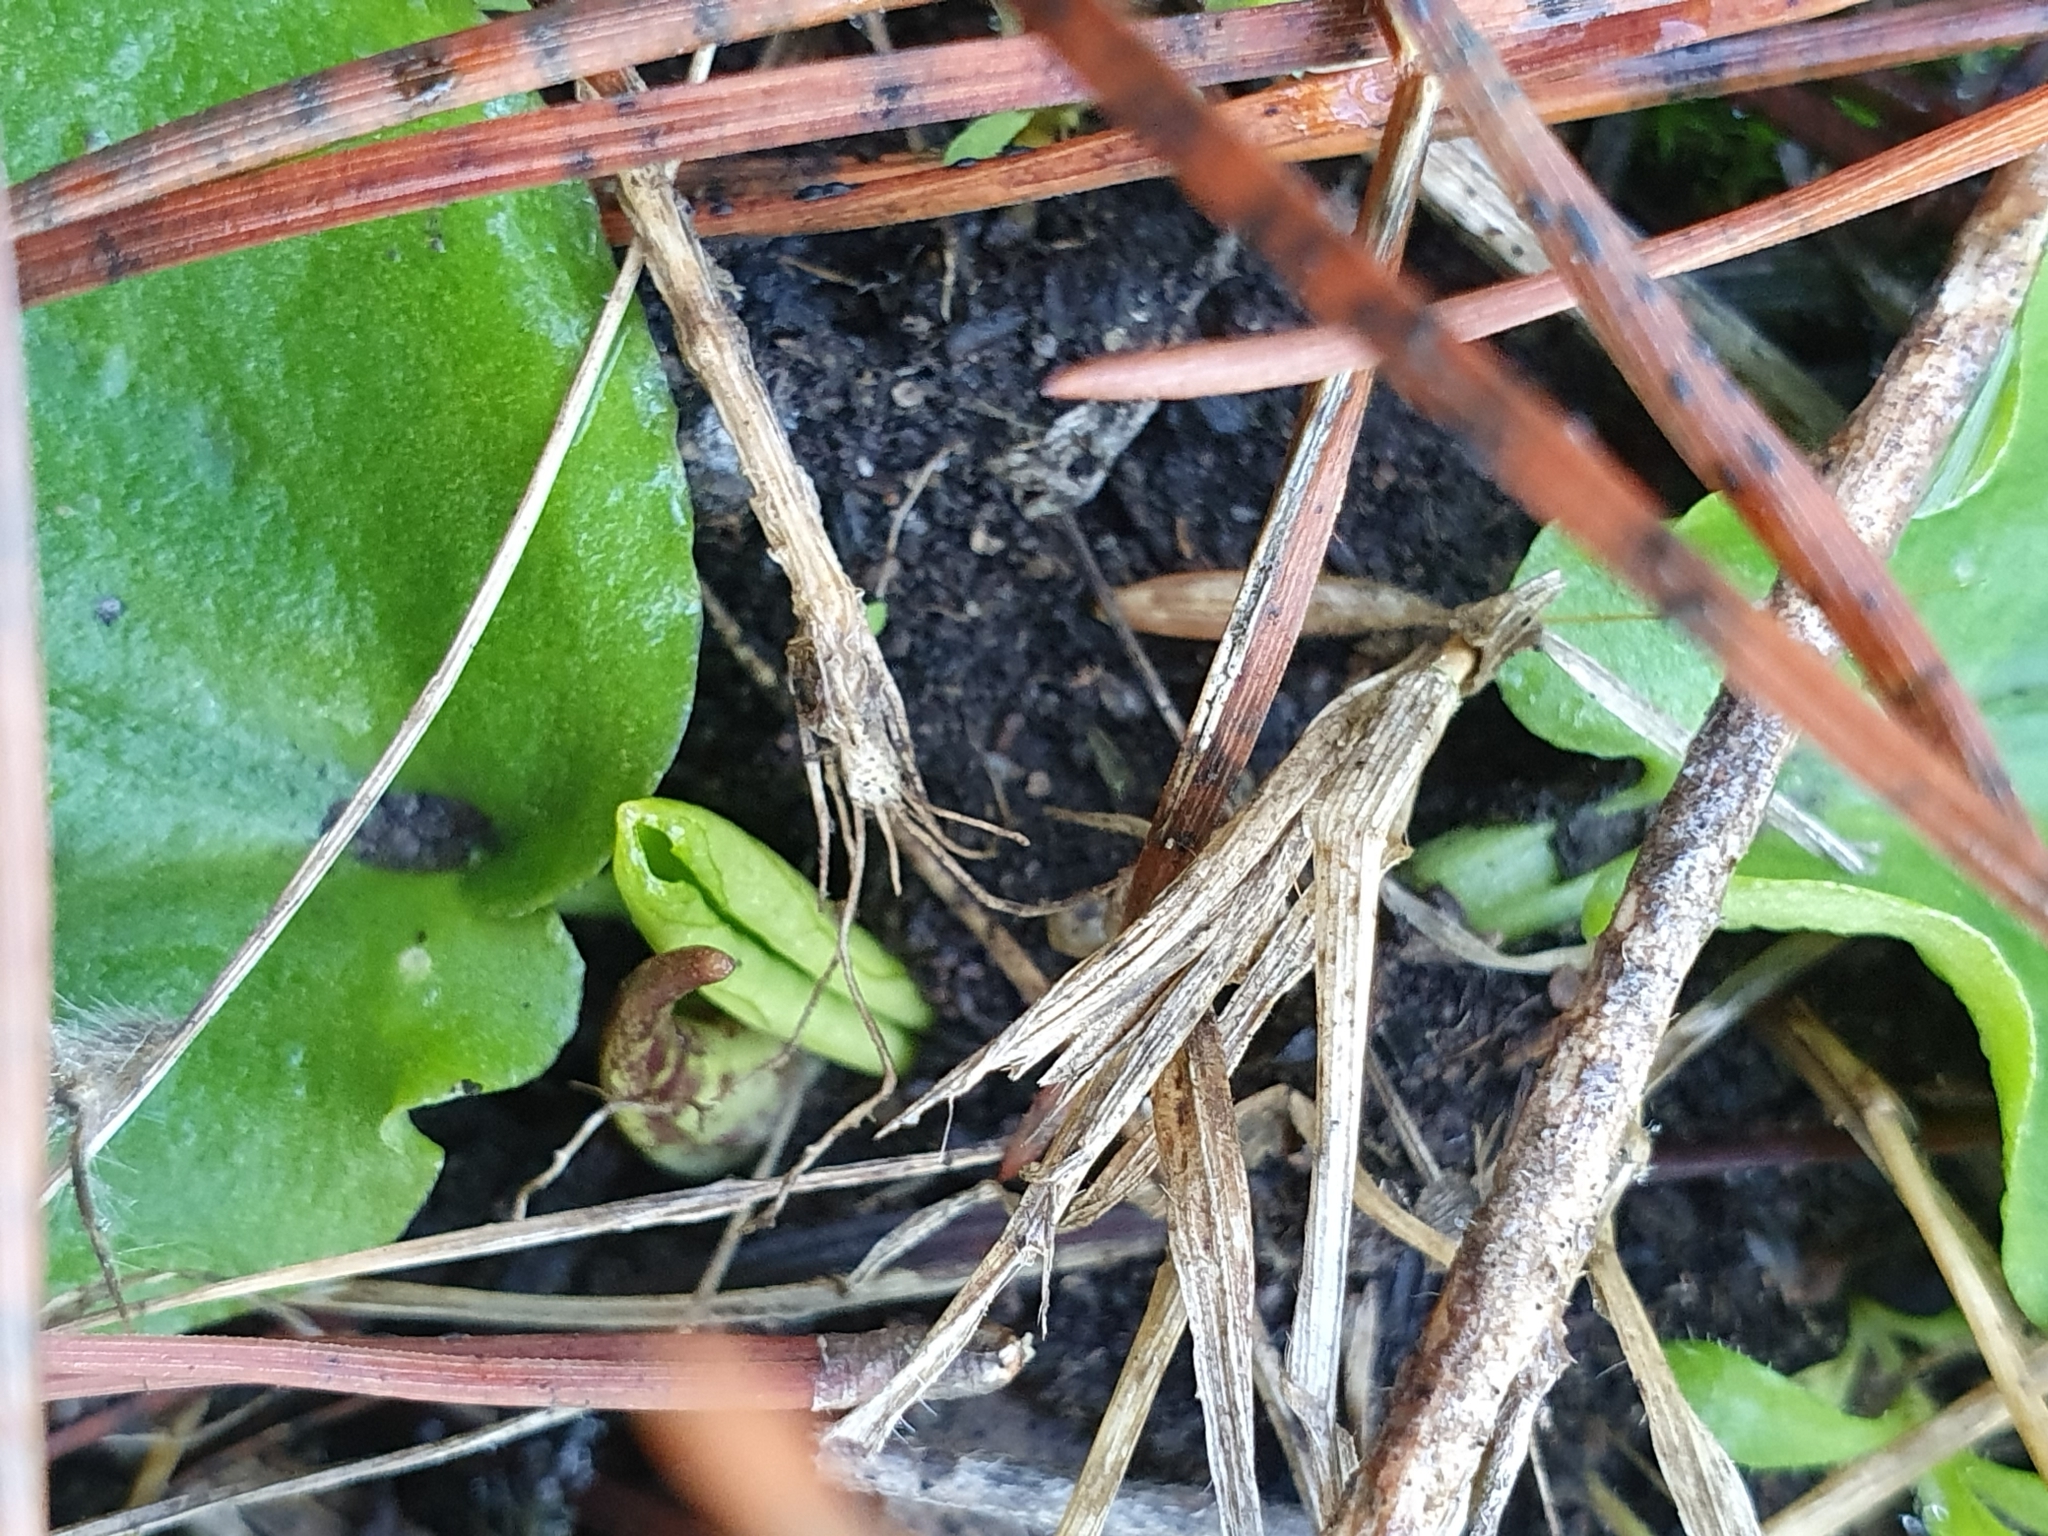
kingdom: Plantae
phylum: Tracheophyta
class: Liliopsida
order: Alismatales
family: Araceae
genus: Ambrosina
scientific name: Ambrosina bassii
